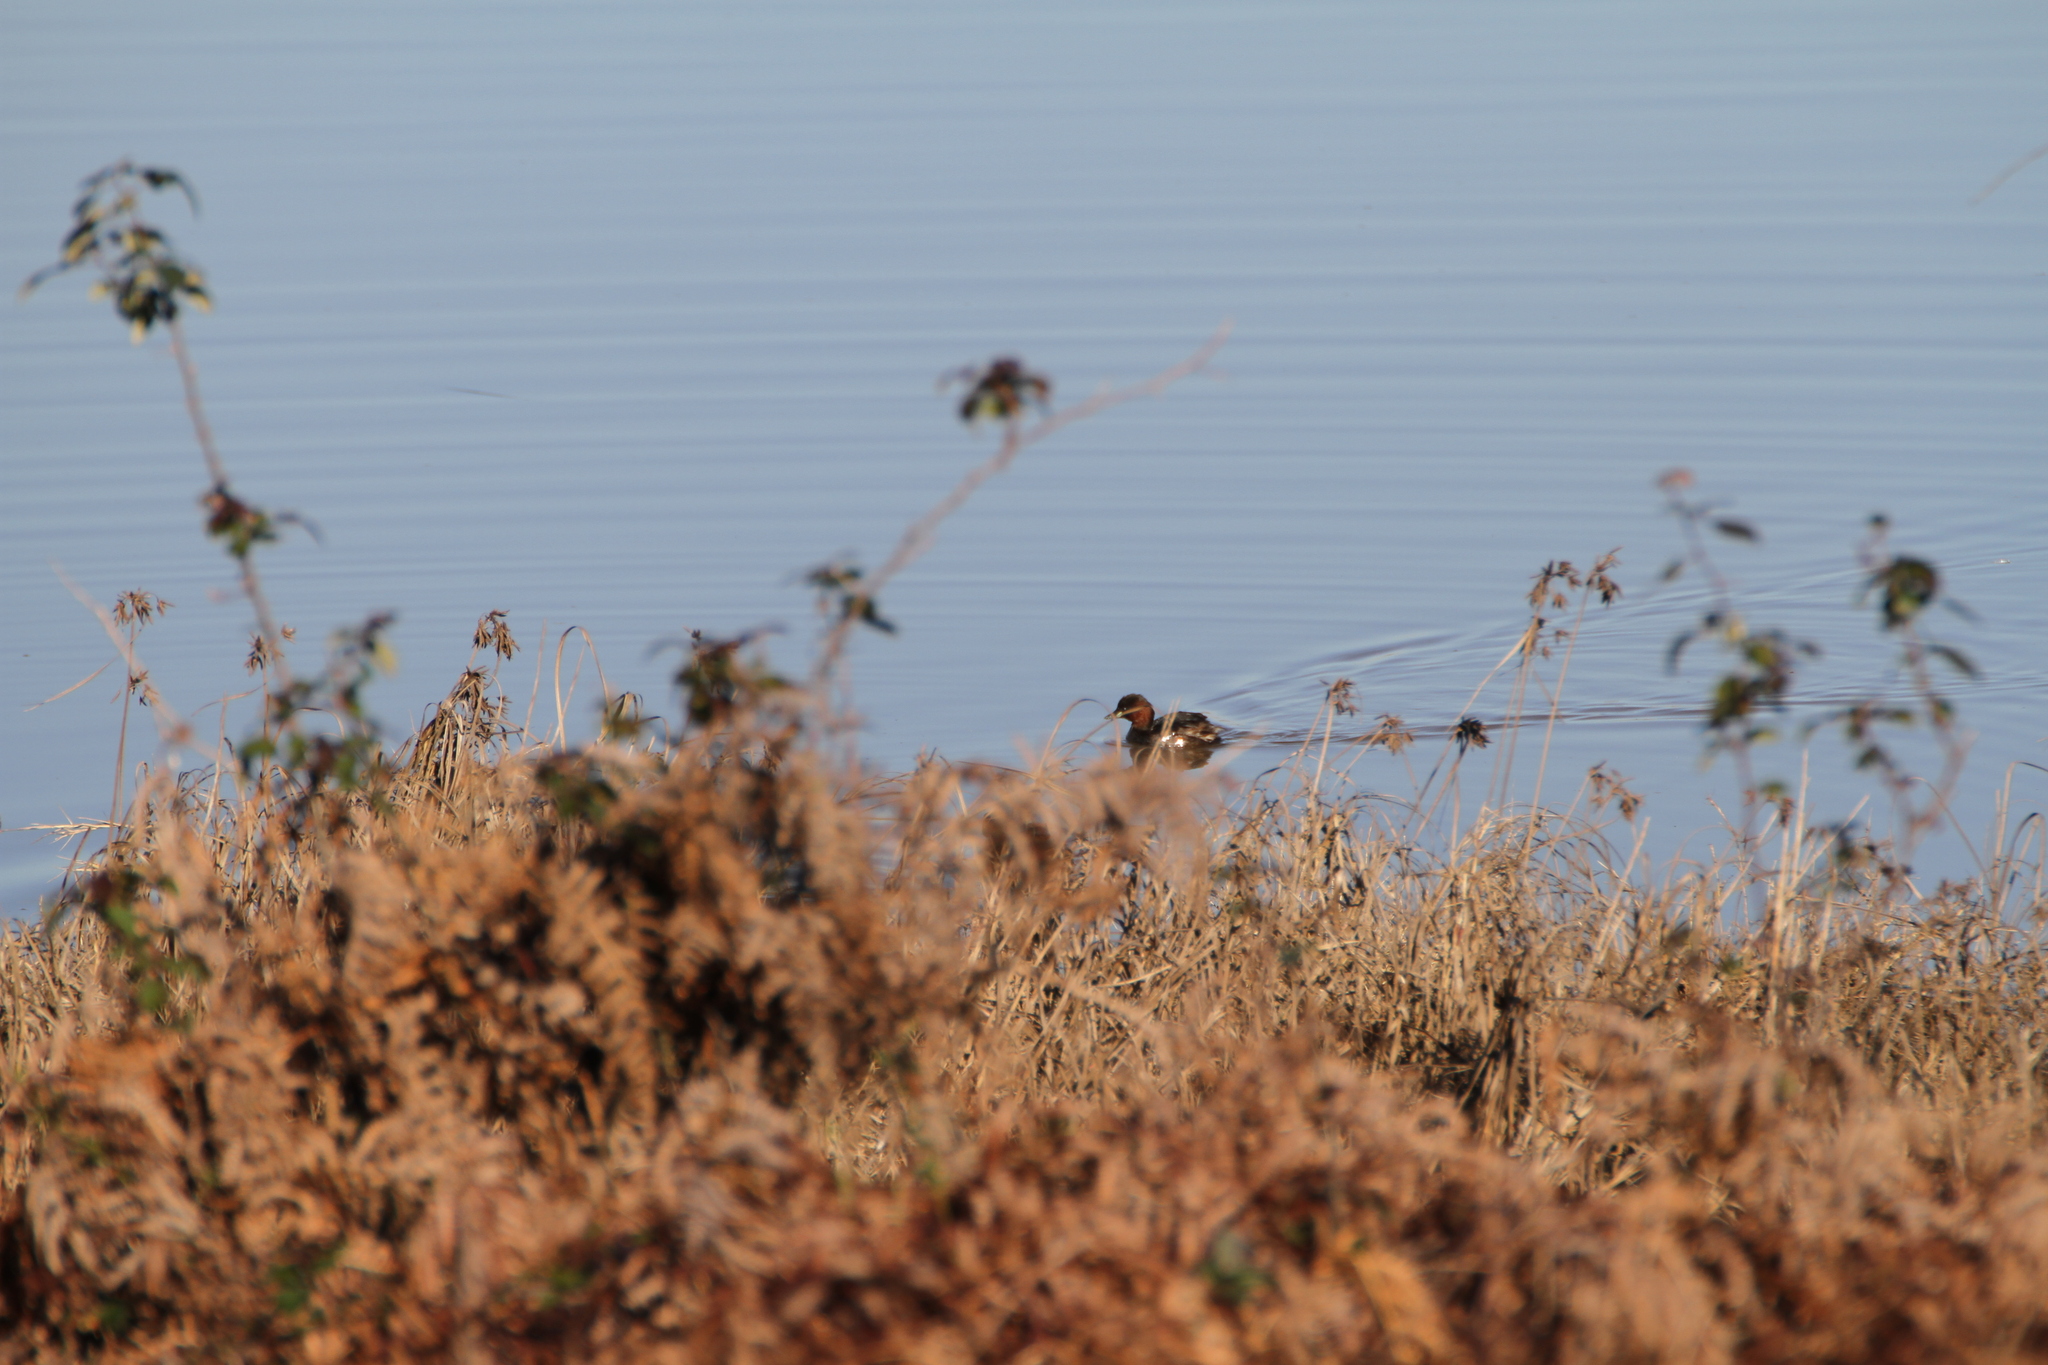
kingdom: Animalia
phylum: Chordata
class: Aves
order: Podicipediformes
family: Podicipedidae
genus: Tachybaptus
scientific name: Tachybaptus ruficollis
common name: Little grebe
